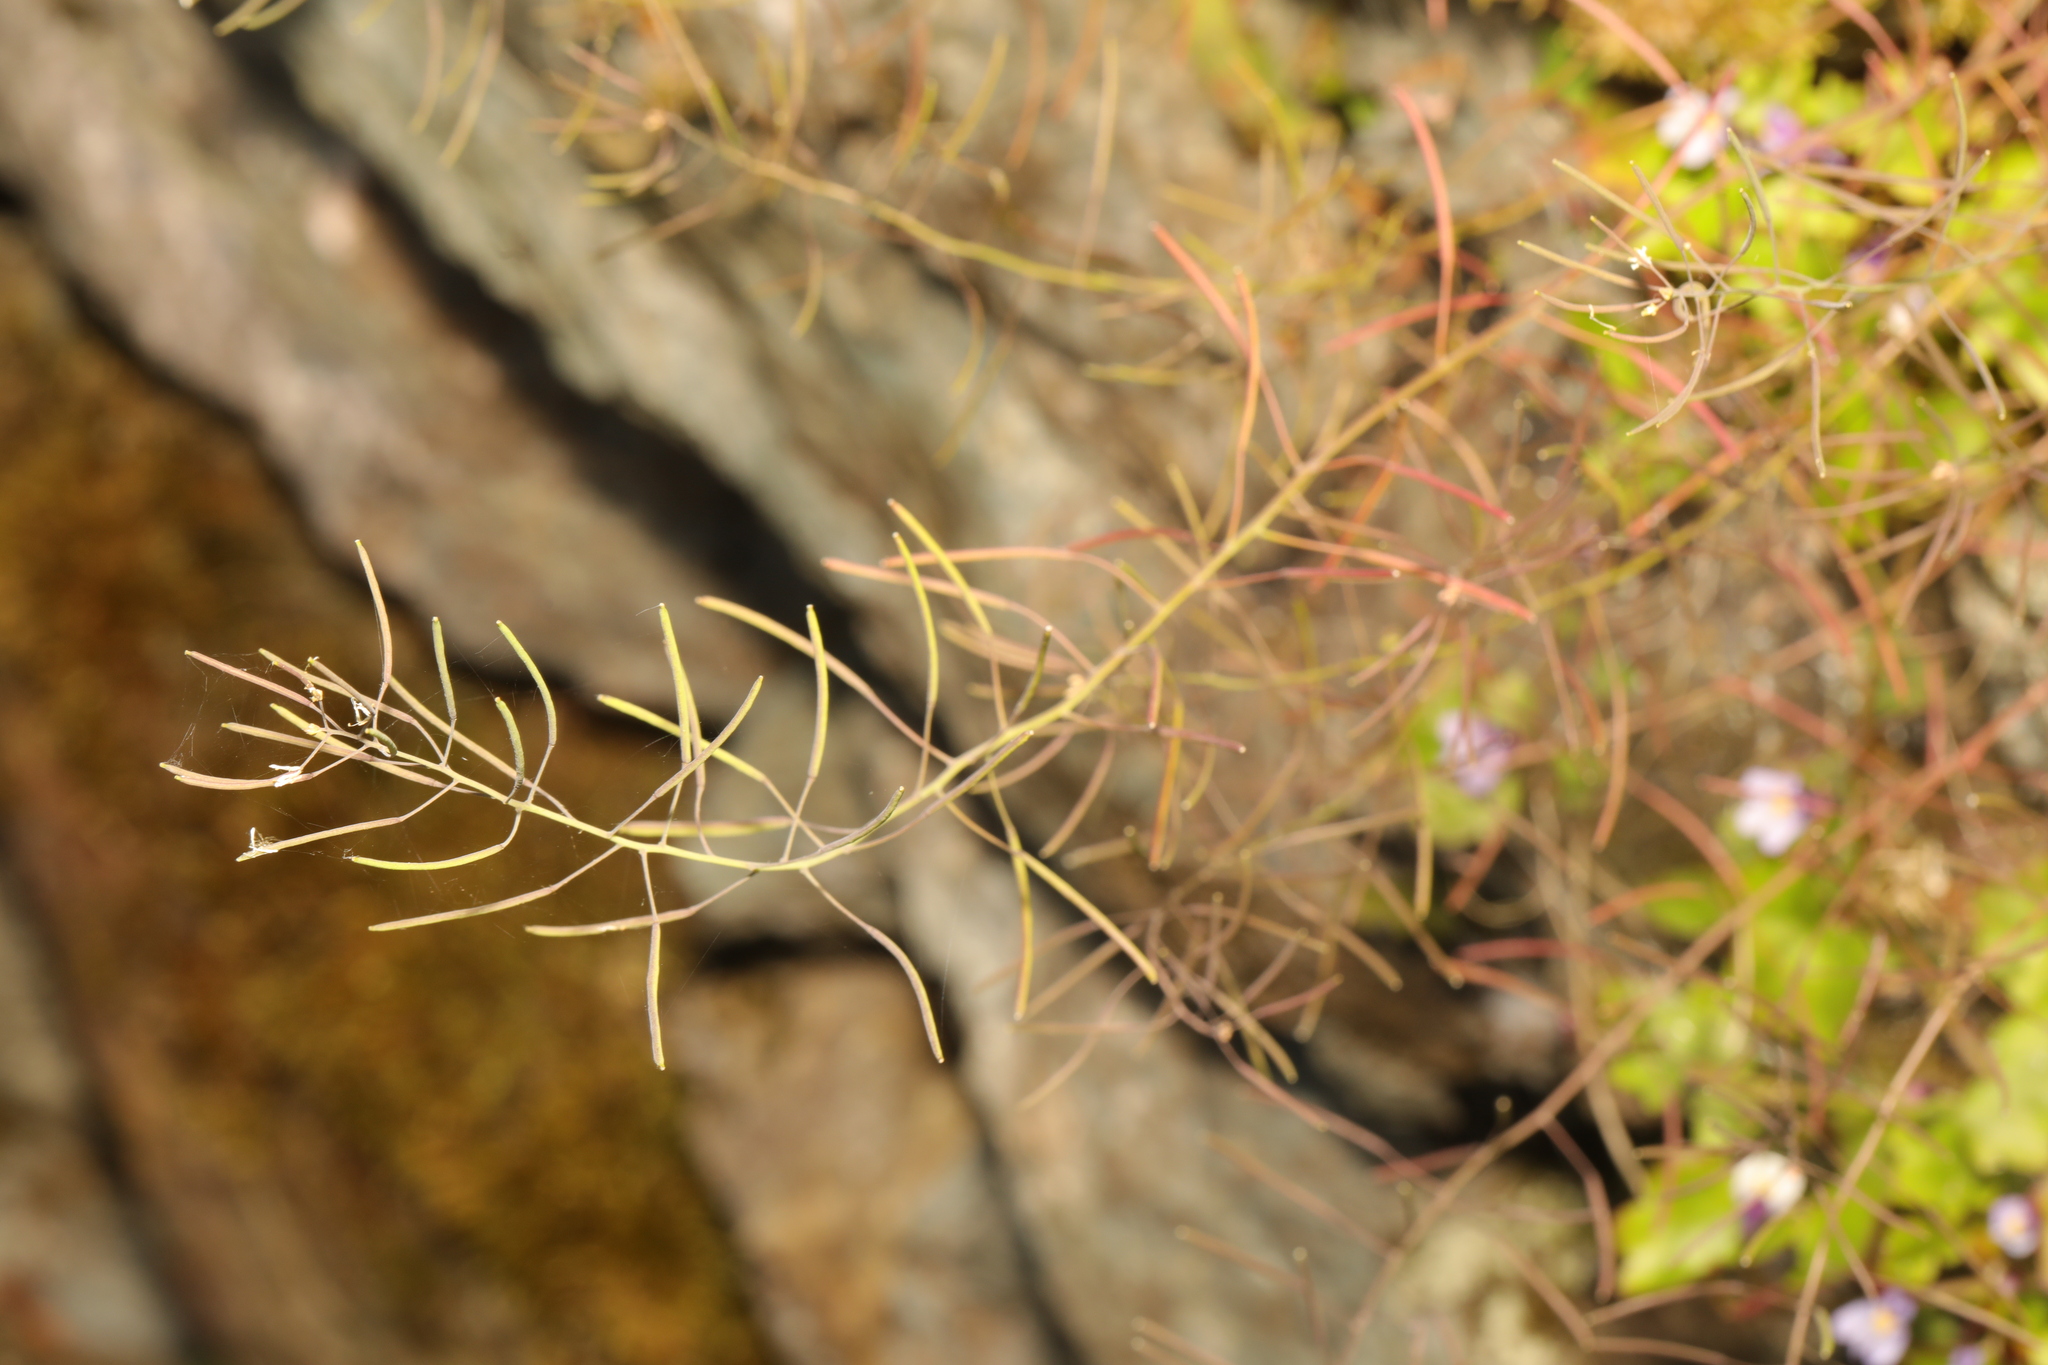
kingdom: Plantae
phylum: Tracheophyta
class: Magnoliopsida
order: Brassicales
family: Brassicaceae
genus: Arabidopsis
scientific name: Arabidopsis thaliana
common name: Thale cress
